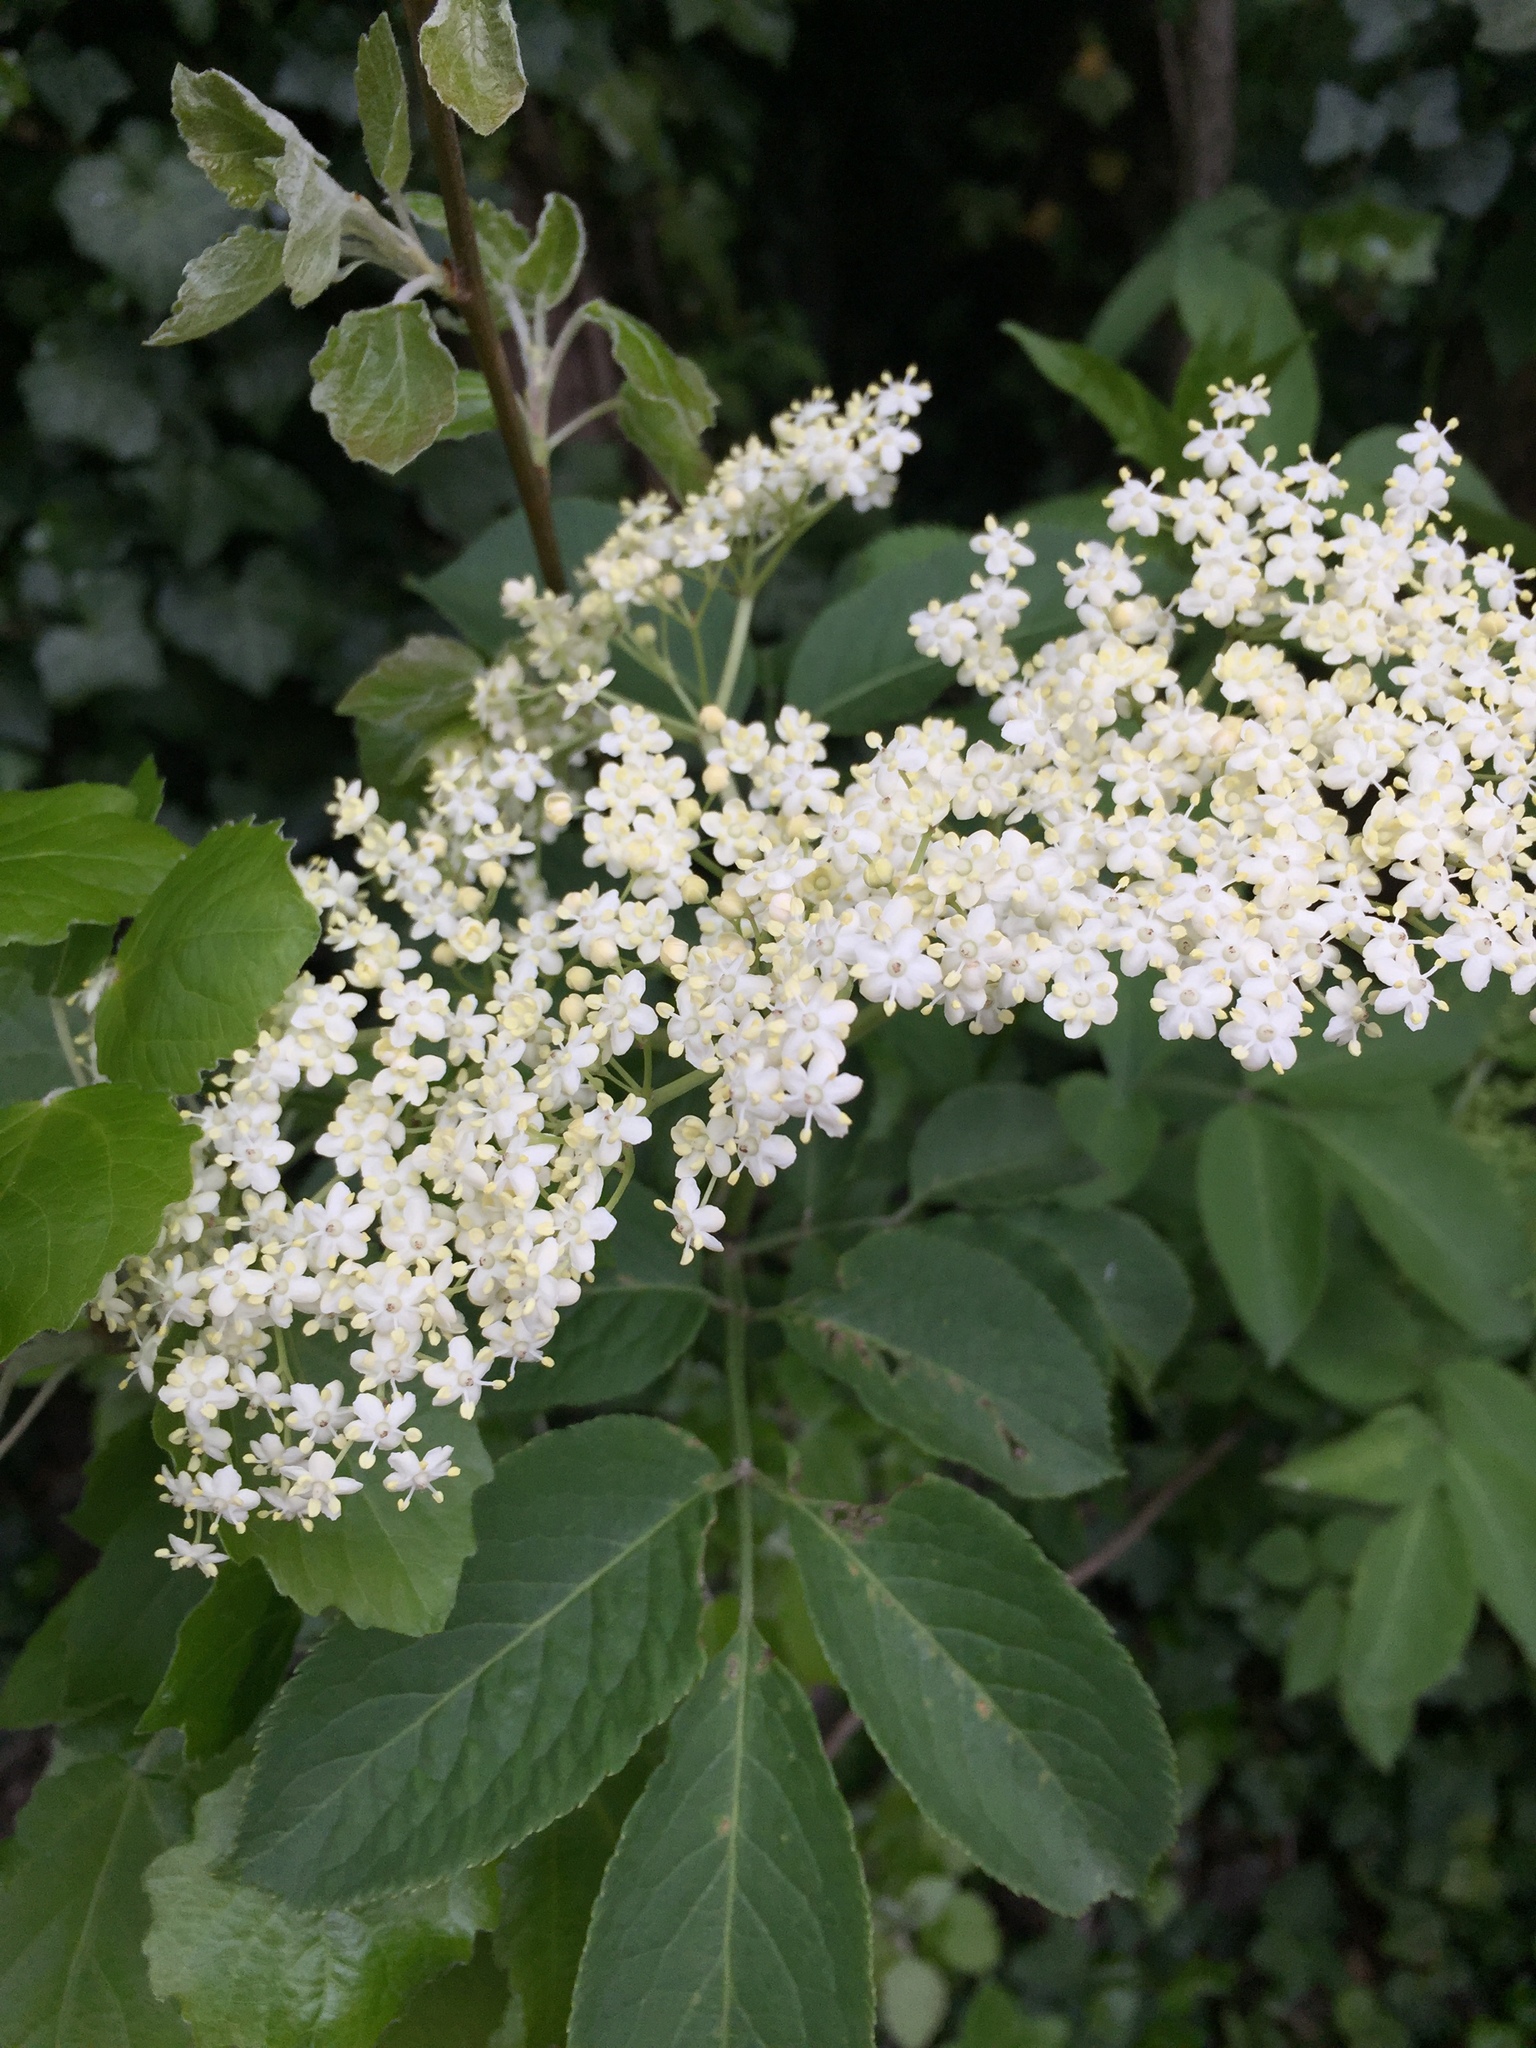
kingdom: Plantae
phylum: Tracheophyta
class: Magnoliopsida
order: Dipsacales
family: Viburnaceae
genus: Sambucus
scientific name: Sambucus nigra
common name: Elder
